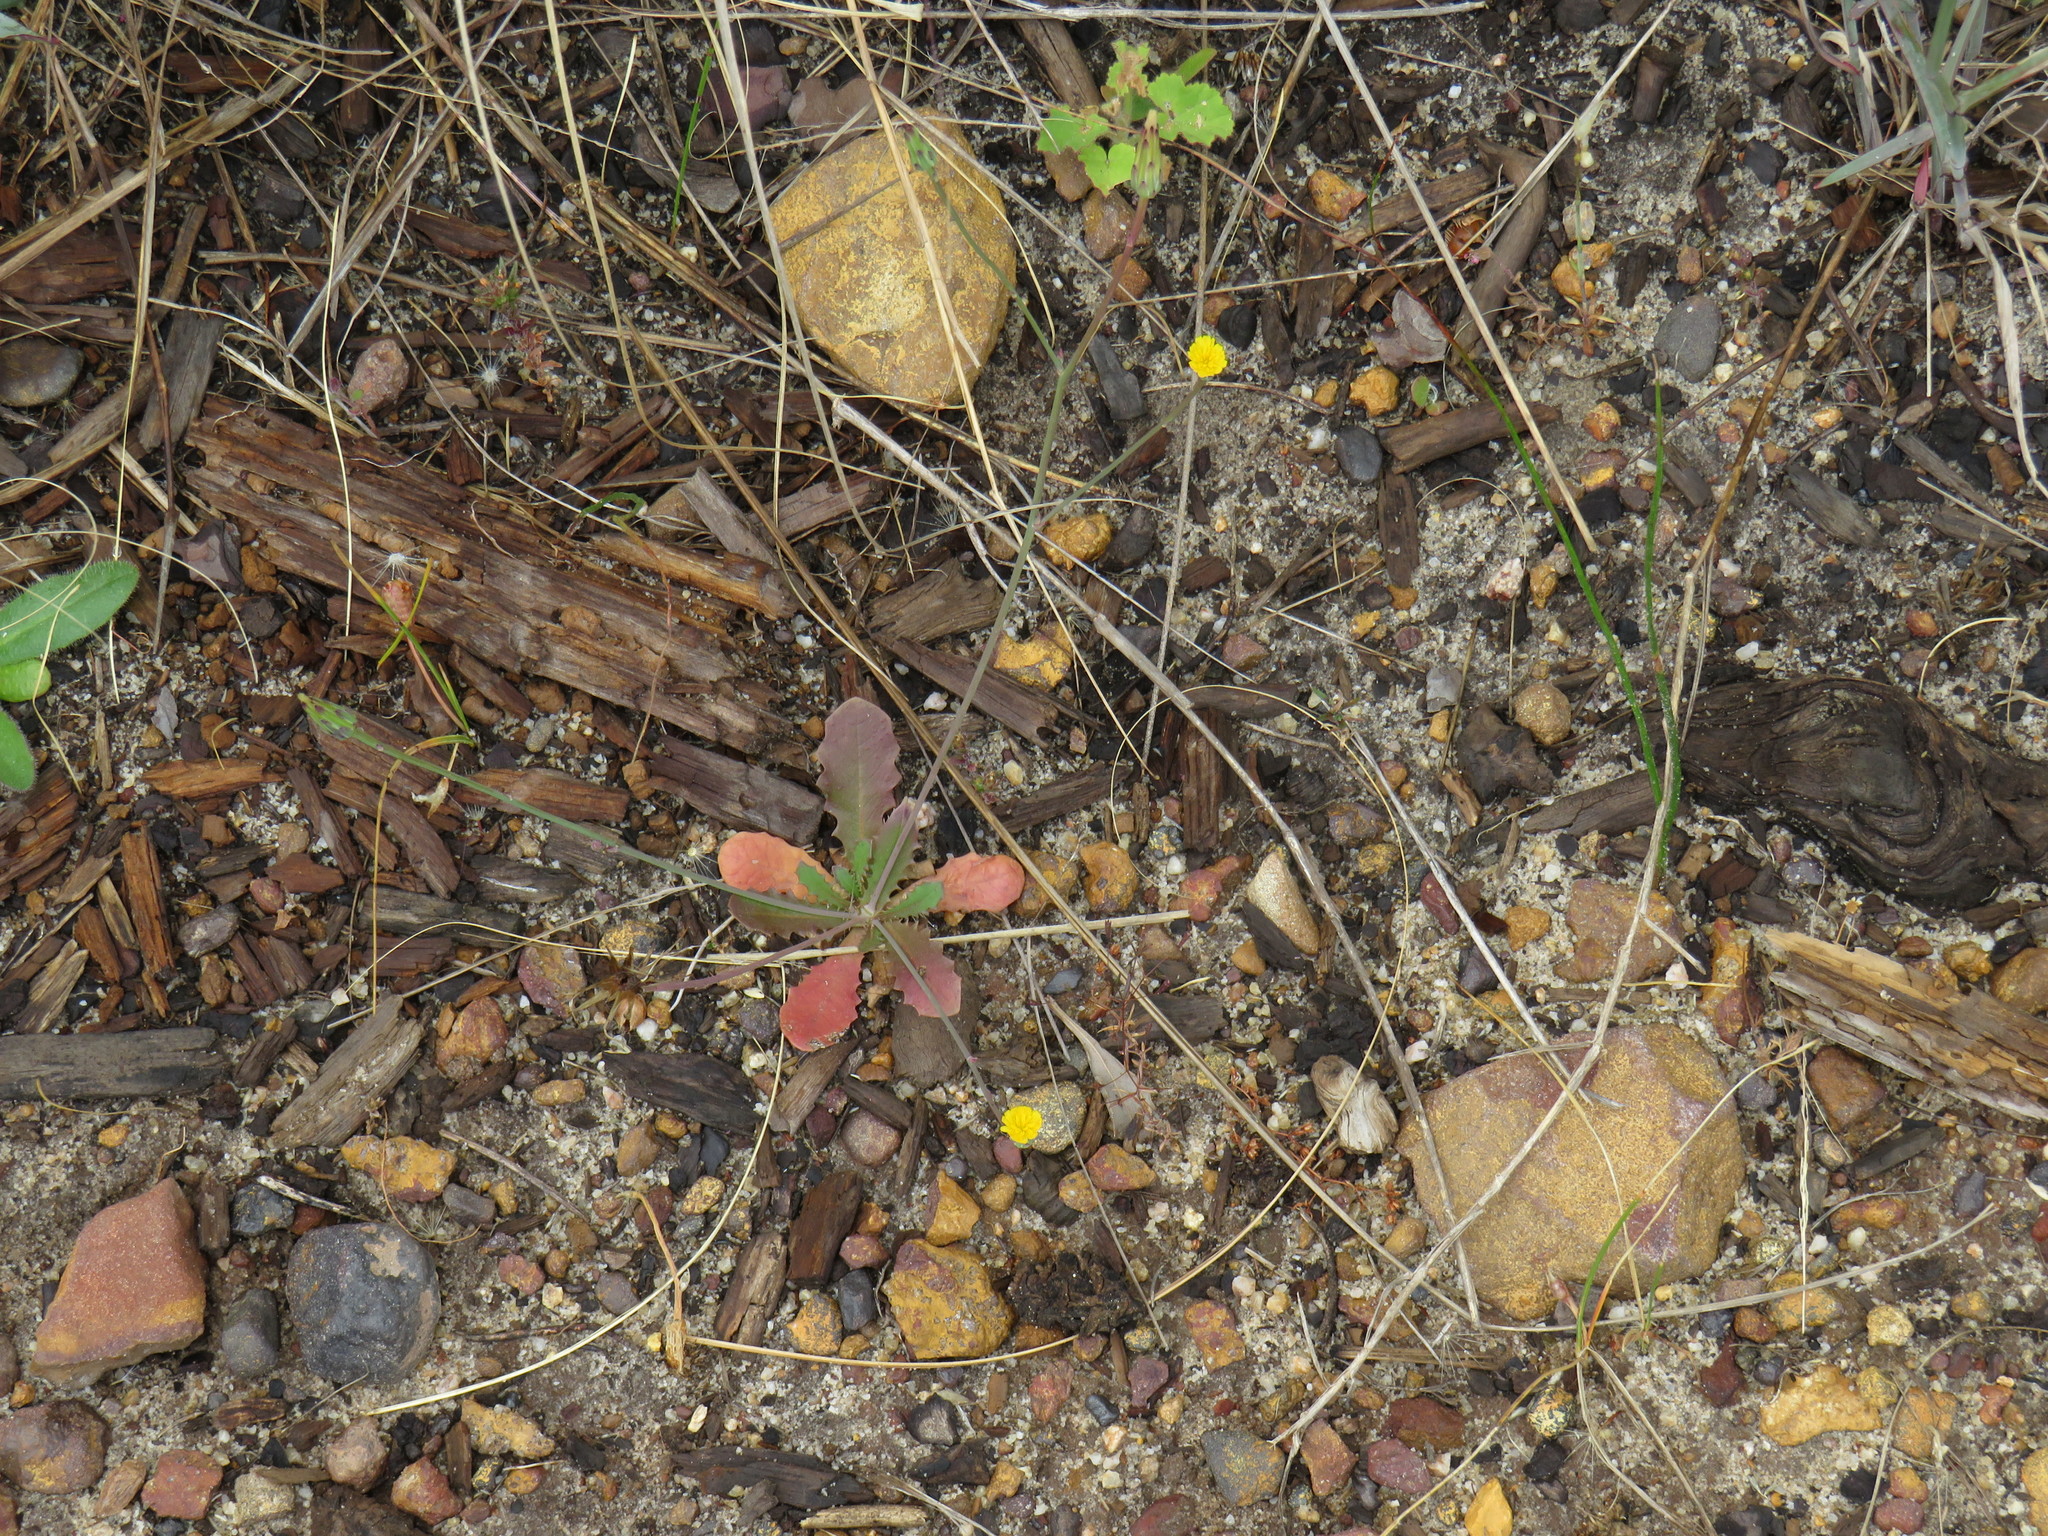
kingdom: Plantae
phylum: Tracheophyta
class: Magnoliopsida
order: Asterales
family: Asteraceae
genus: Hypochaeris
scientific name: Hypochaeris glabra
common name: Smooth catsear
